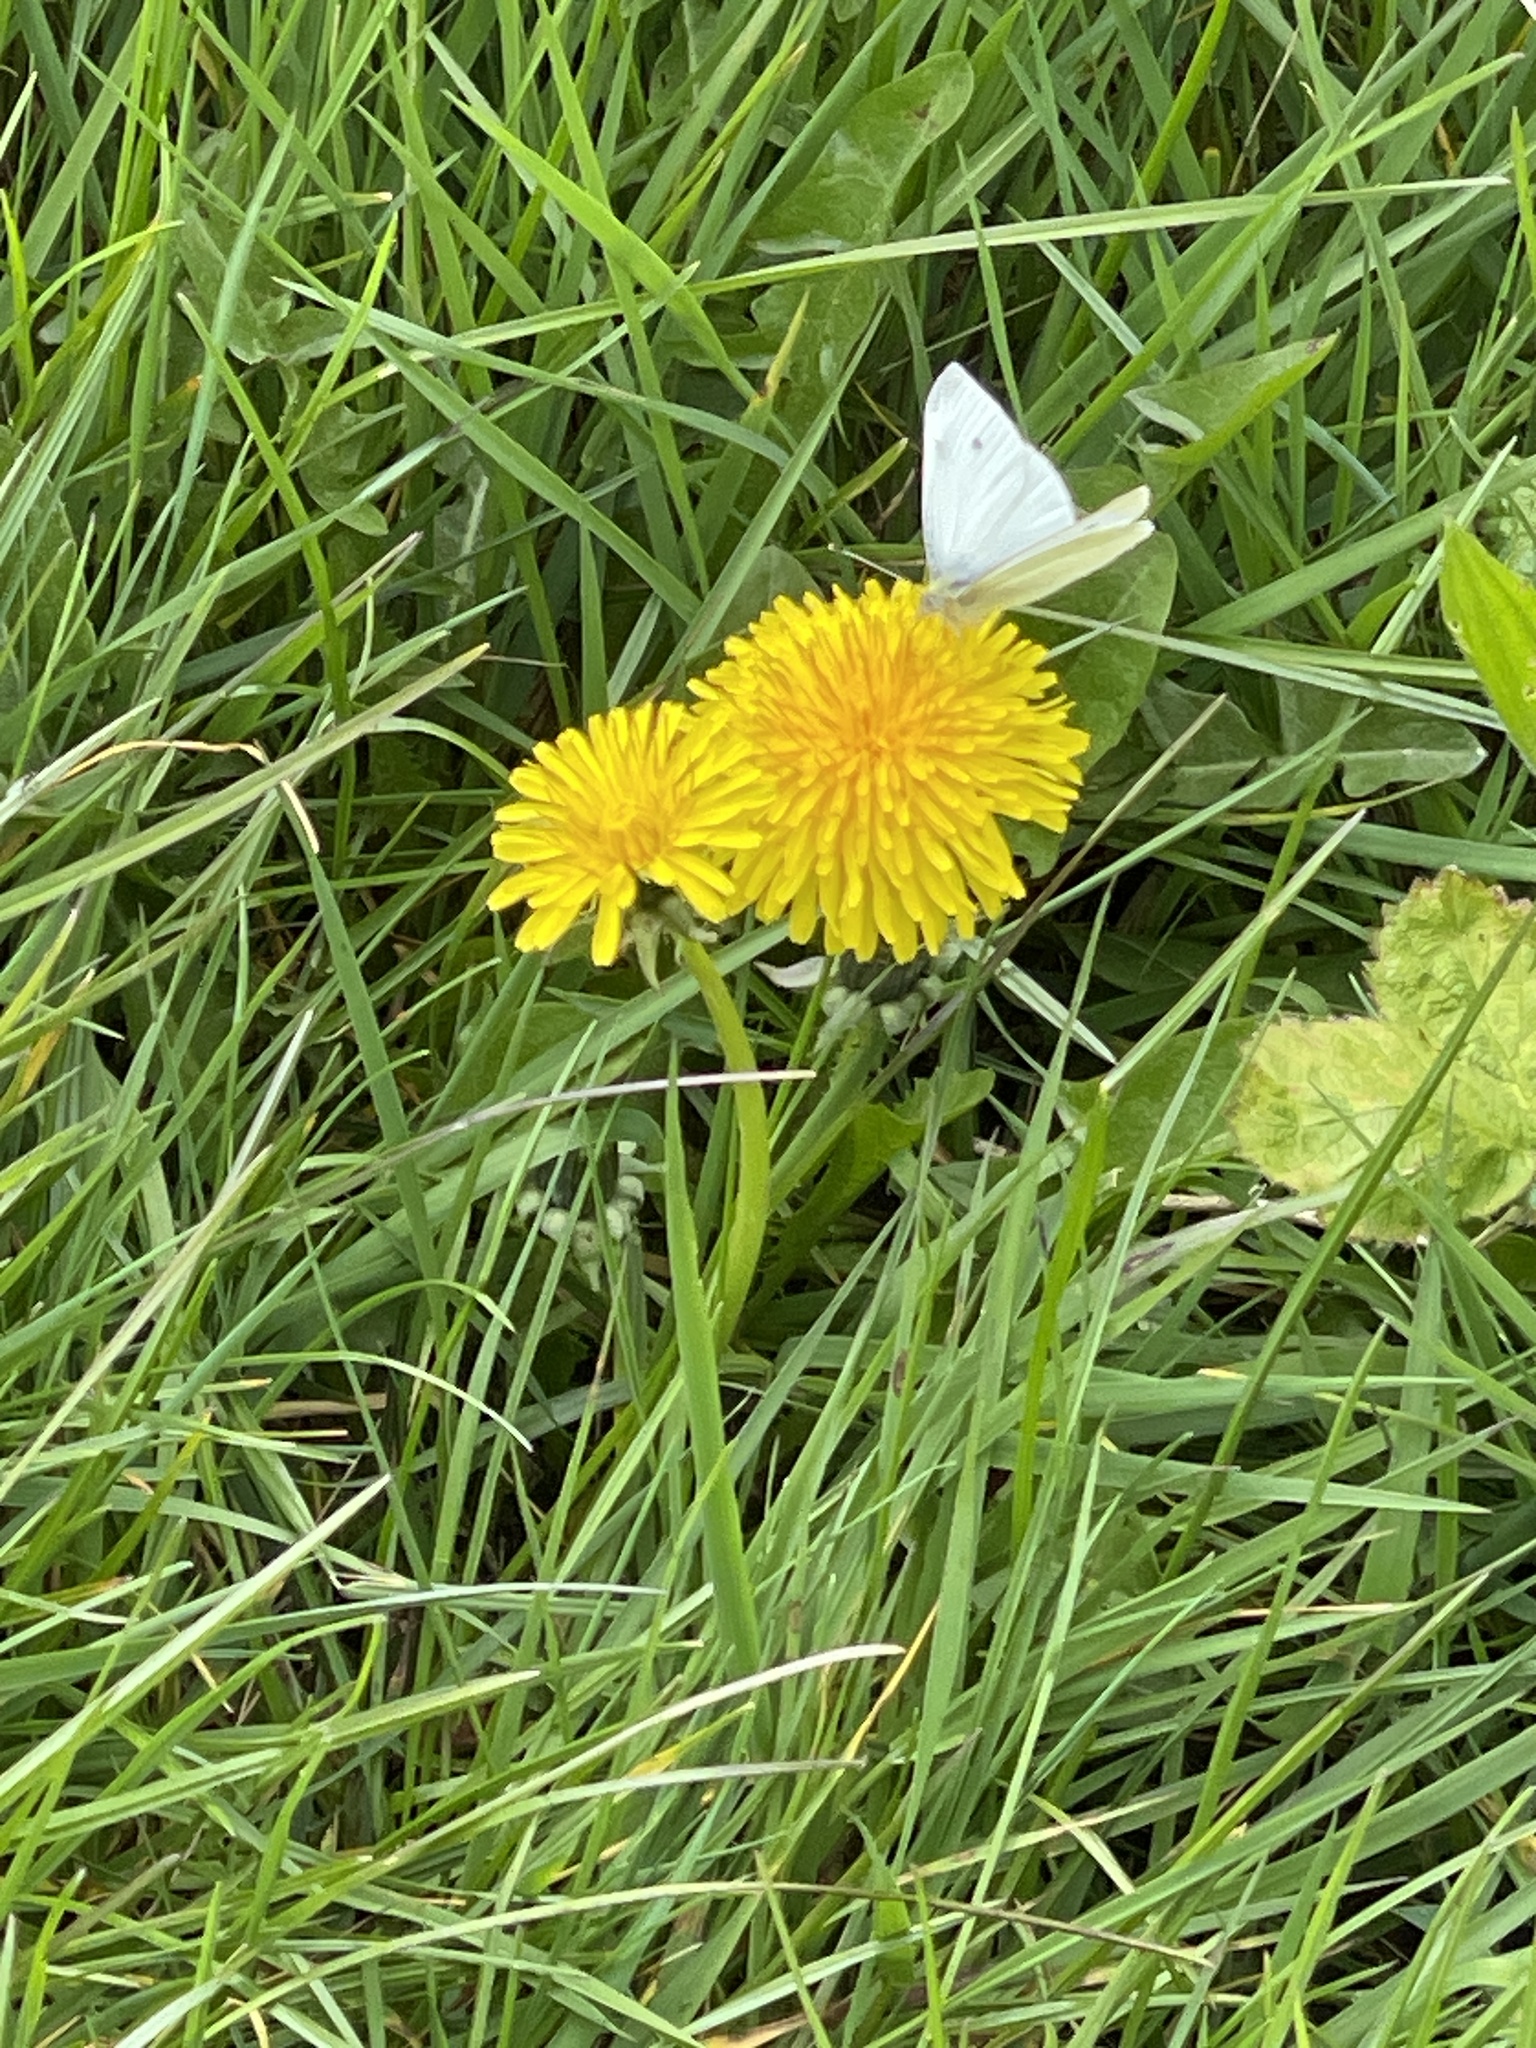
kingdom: Animalia
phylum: Arthropoda
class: Insecta
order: Lepidoptera
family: Pieridae
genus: Pieris
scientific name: Pieris rapae
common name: Small white
